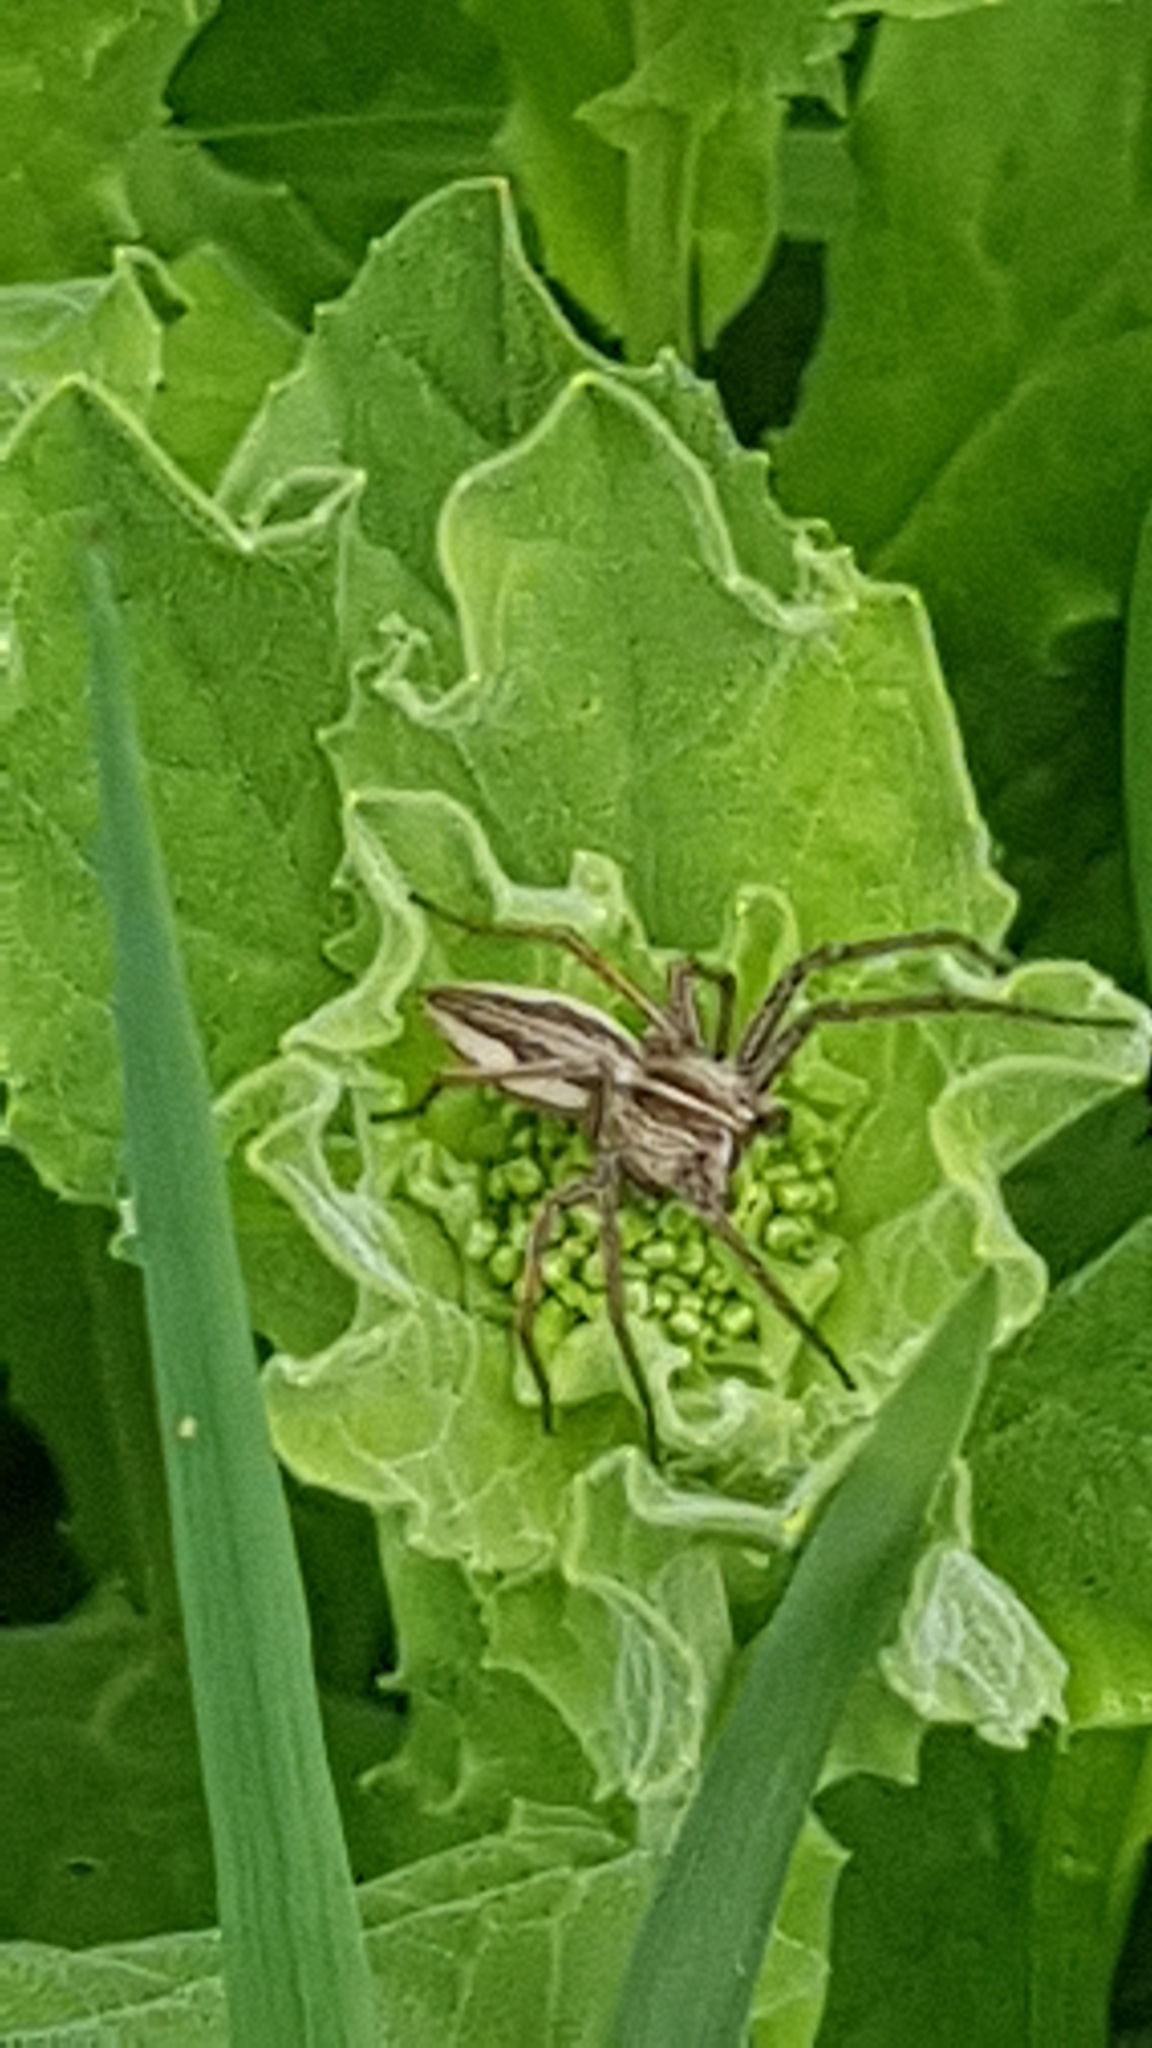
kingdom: Animalia
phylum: Arthropoda
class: Arachnida
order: Araneae
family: Pisauridae
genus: Pisaura
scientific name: Pisaura mirabilis
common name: Tent spider
